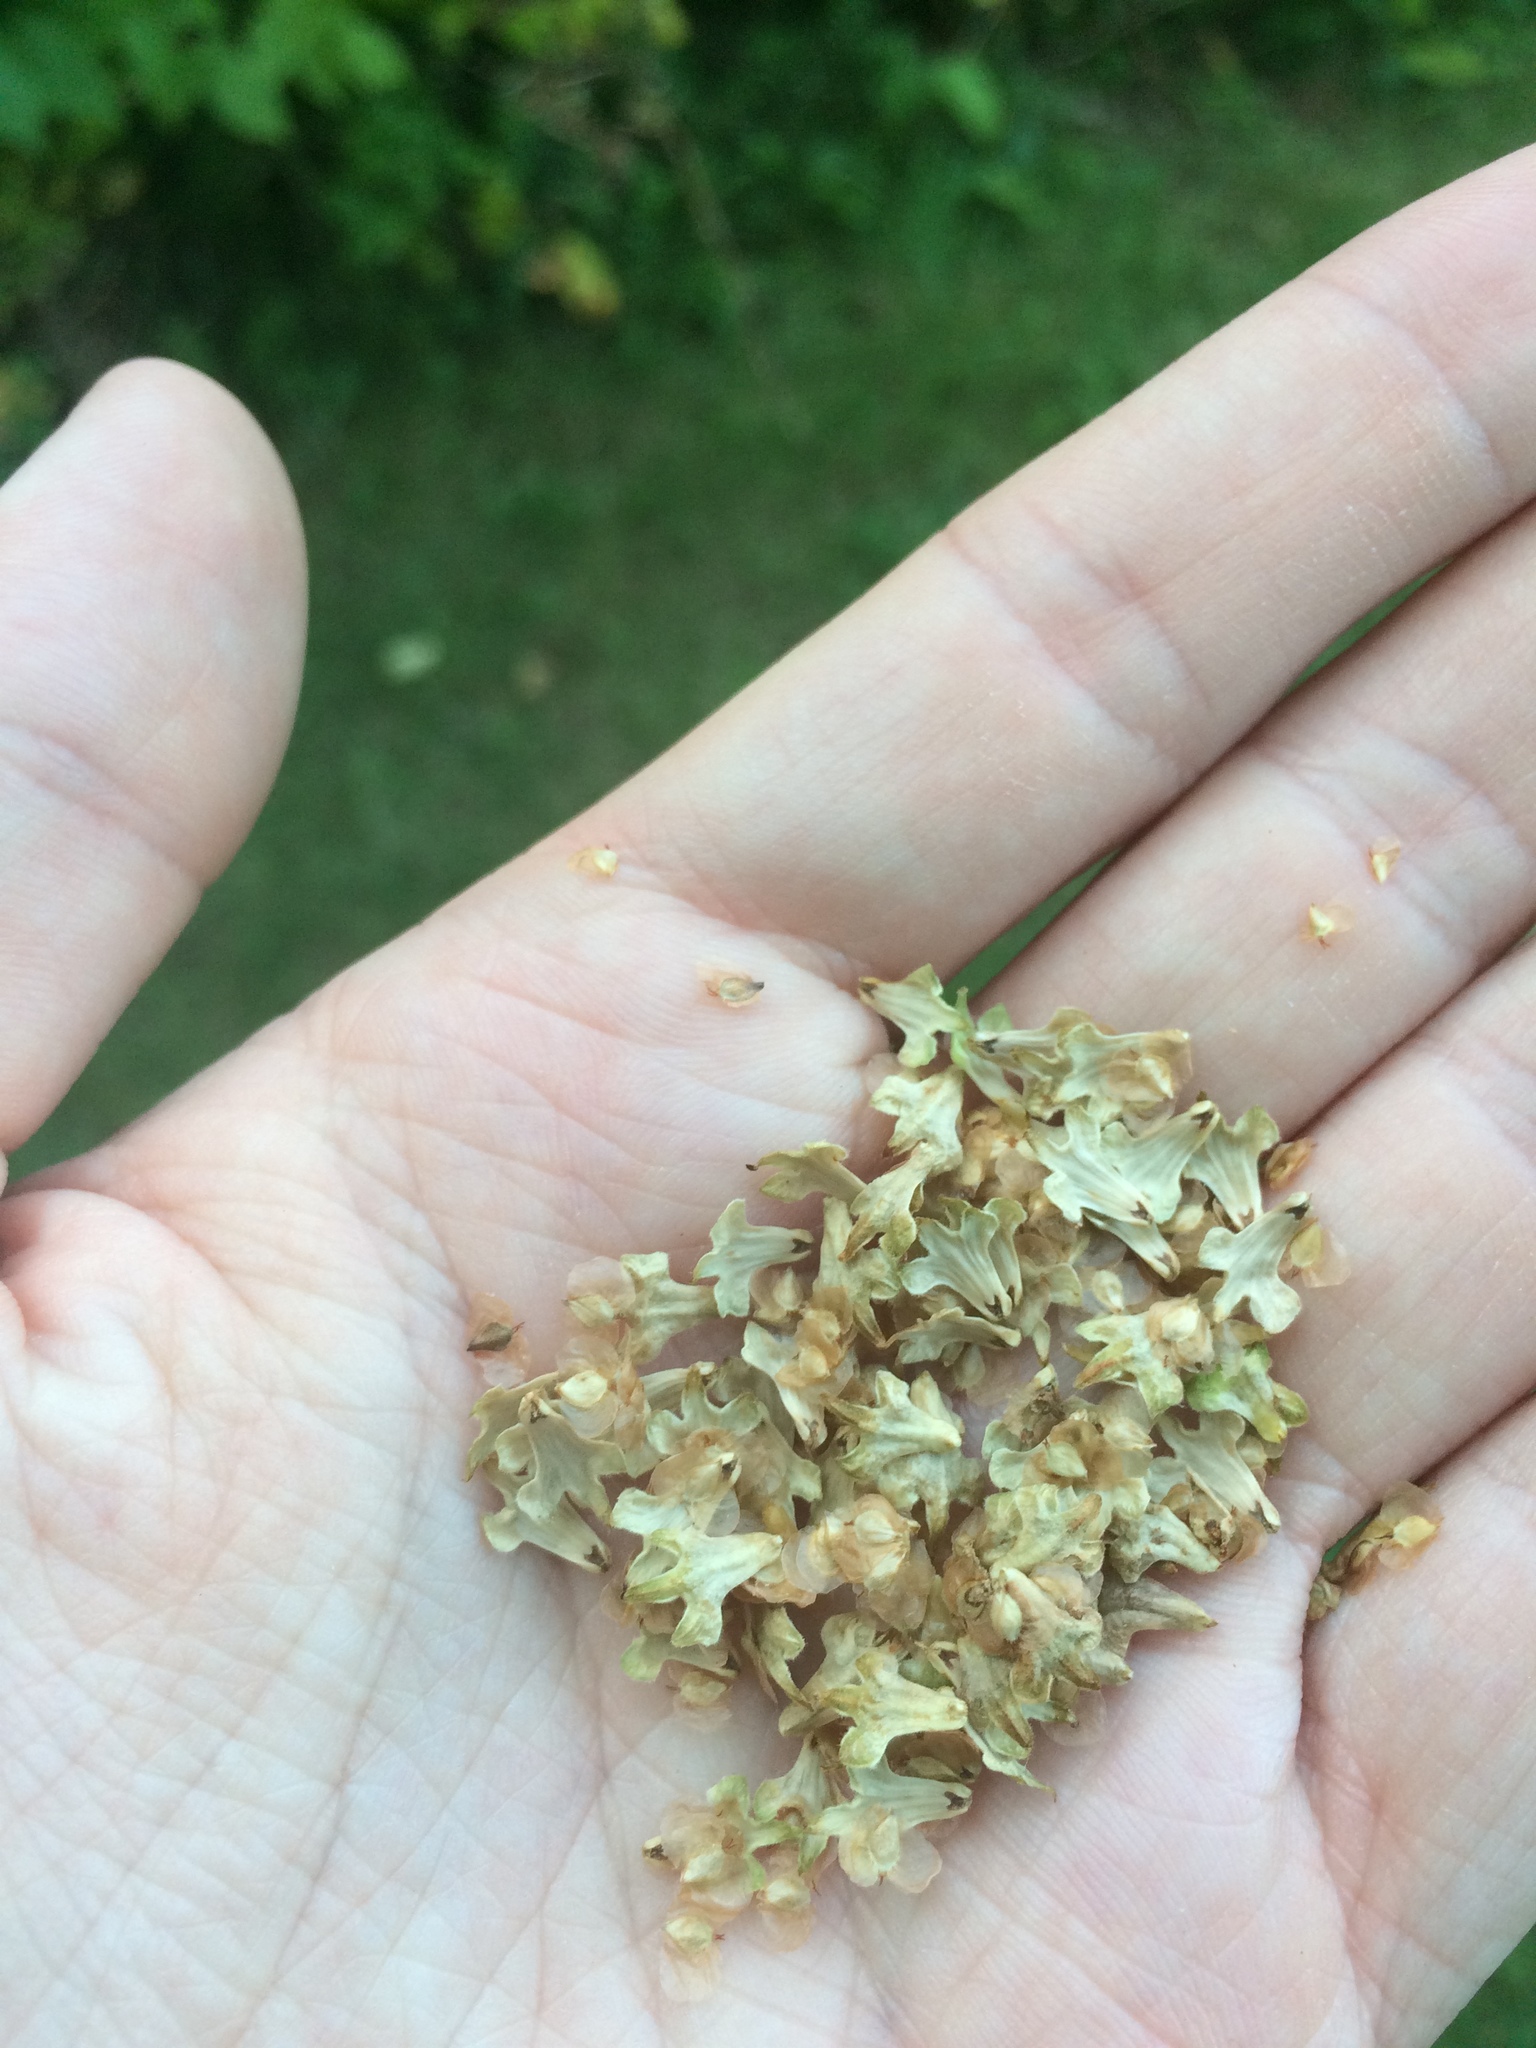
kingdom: Plantae
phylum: Tracheophyta
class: Magnoliopsida
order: Fagales
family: Betulaceae
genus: Betula
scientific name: Betula papyrifera
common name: Paper birch
